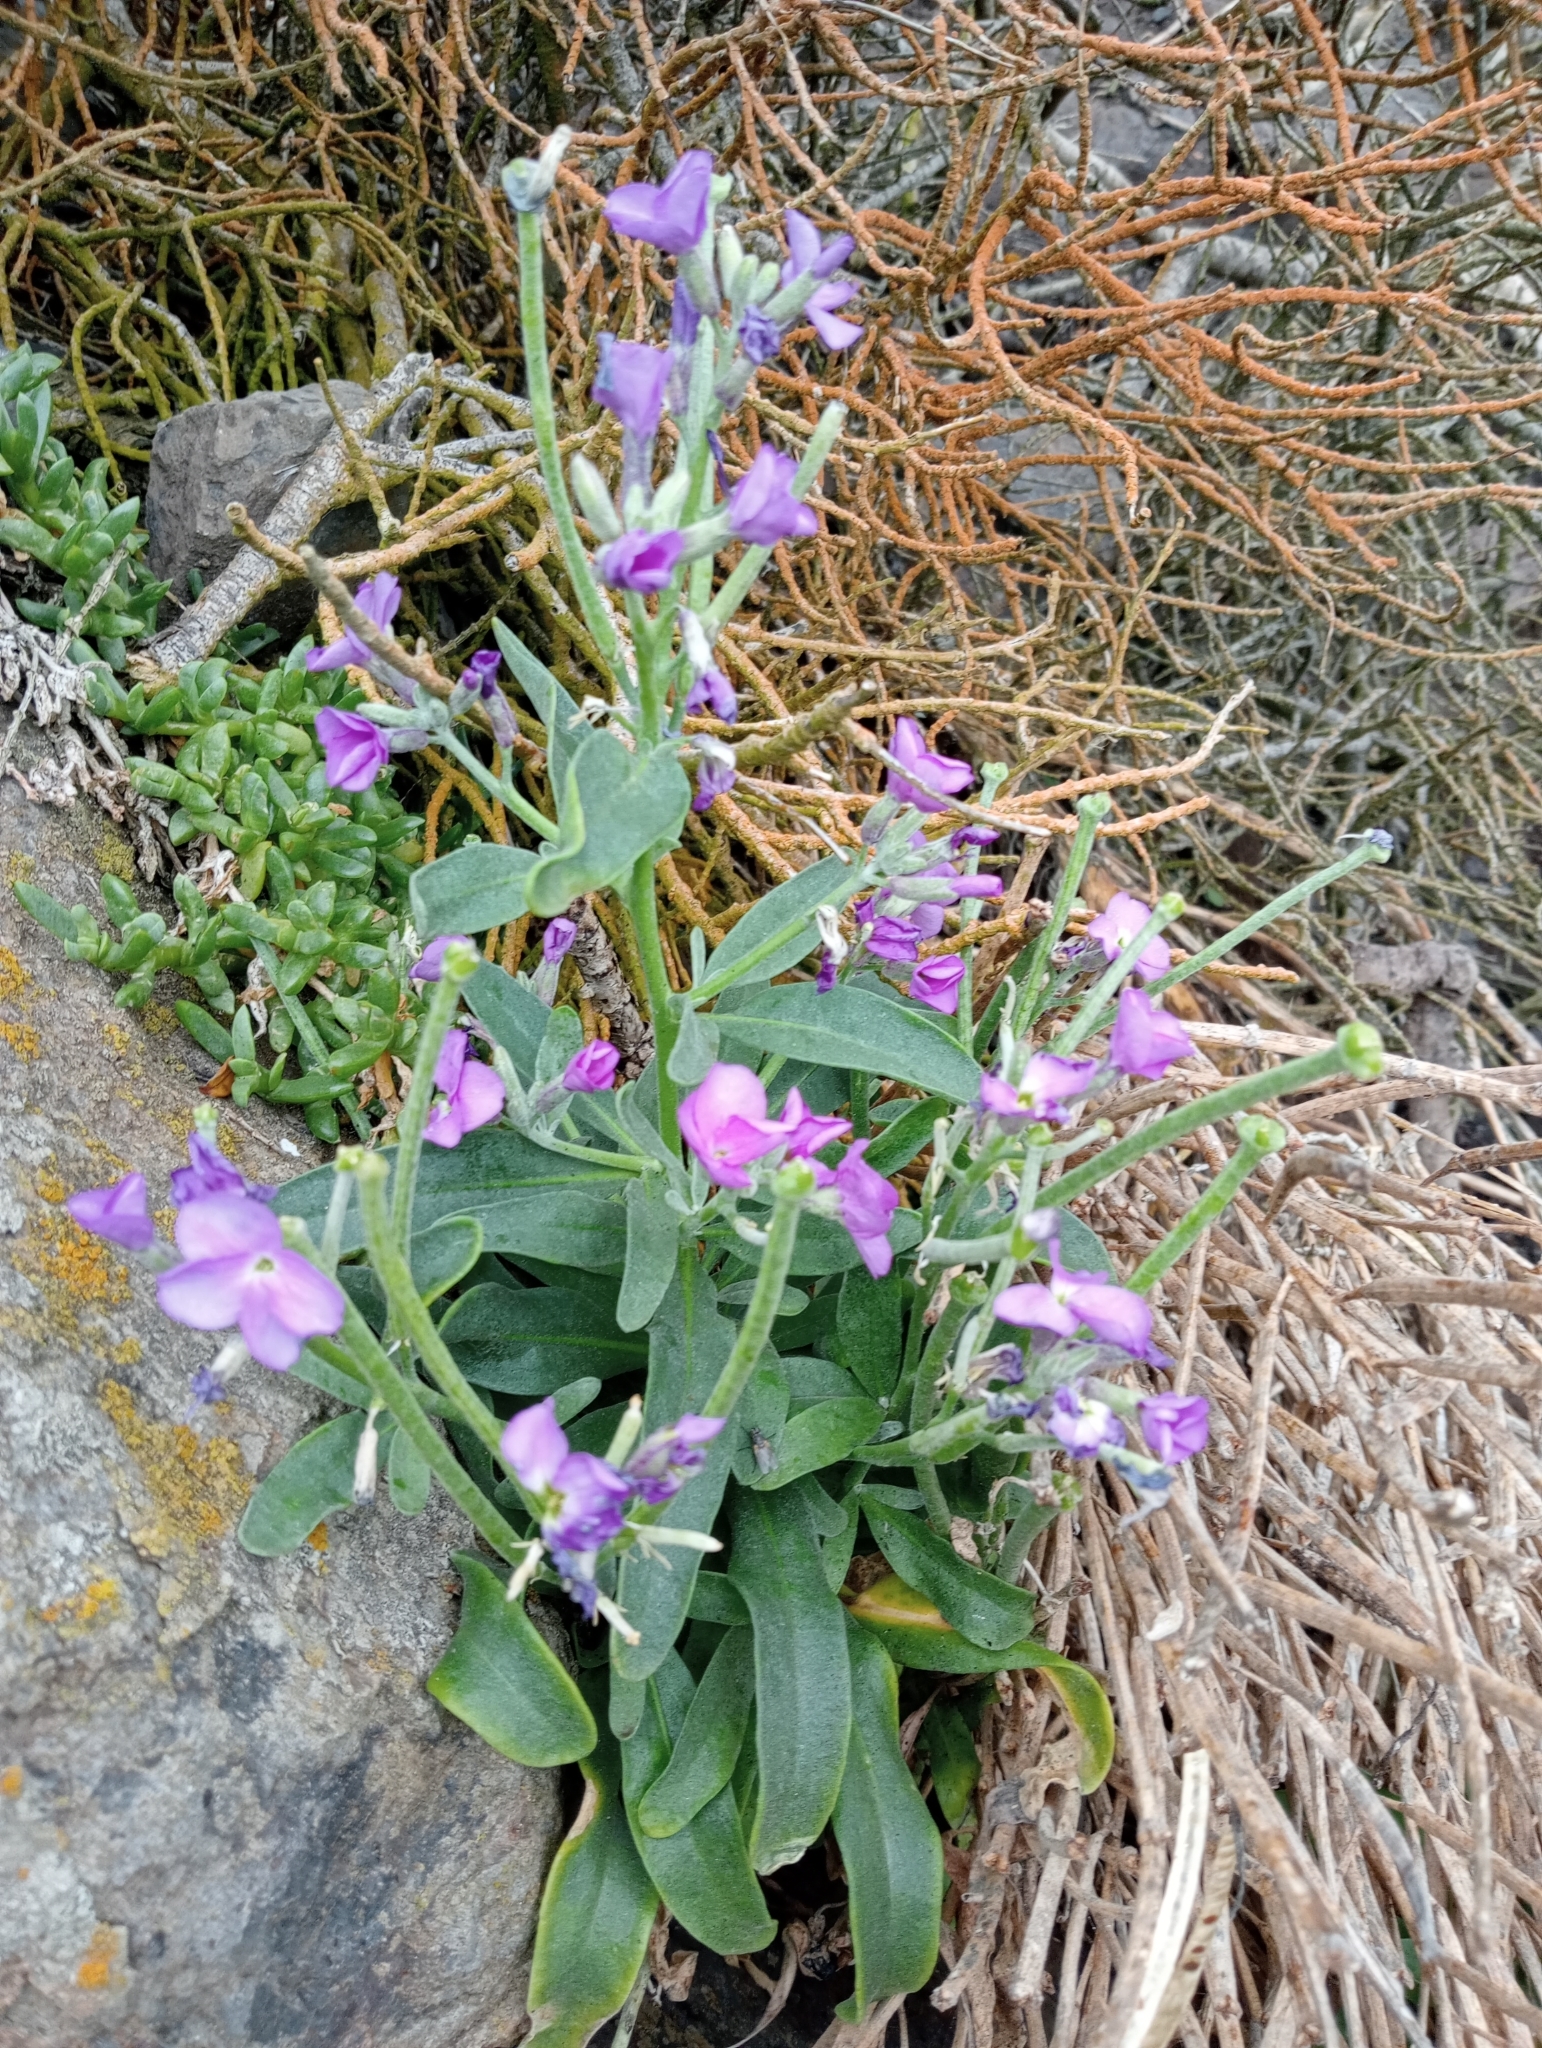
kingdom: Plantae
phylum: Tracheophyta
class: Magnoliopsida
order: Brassicales
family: Brassicaceae
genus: Matthiola
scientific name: Matthiola incana
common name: Hoary stock
